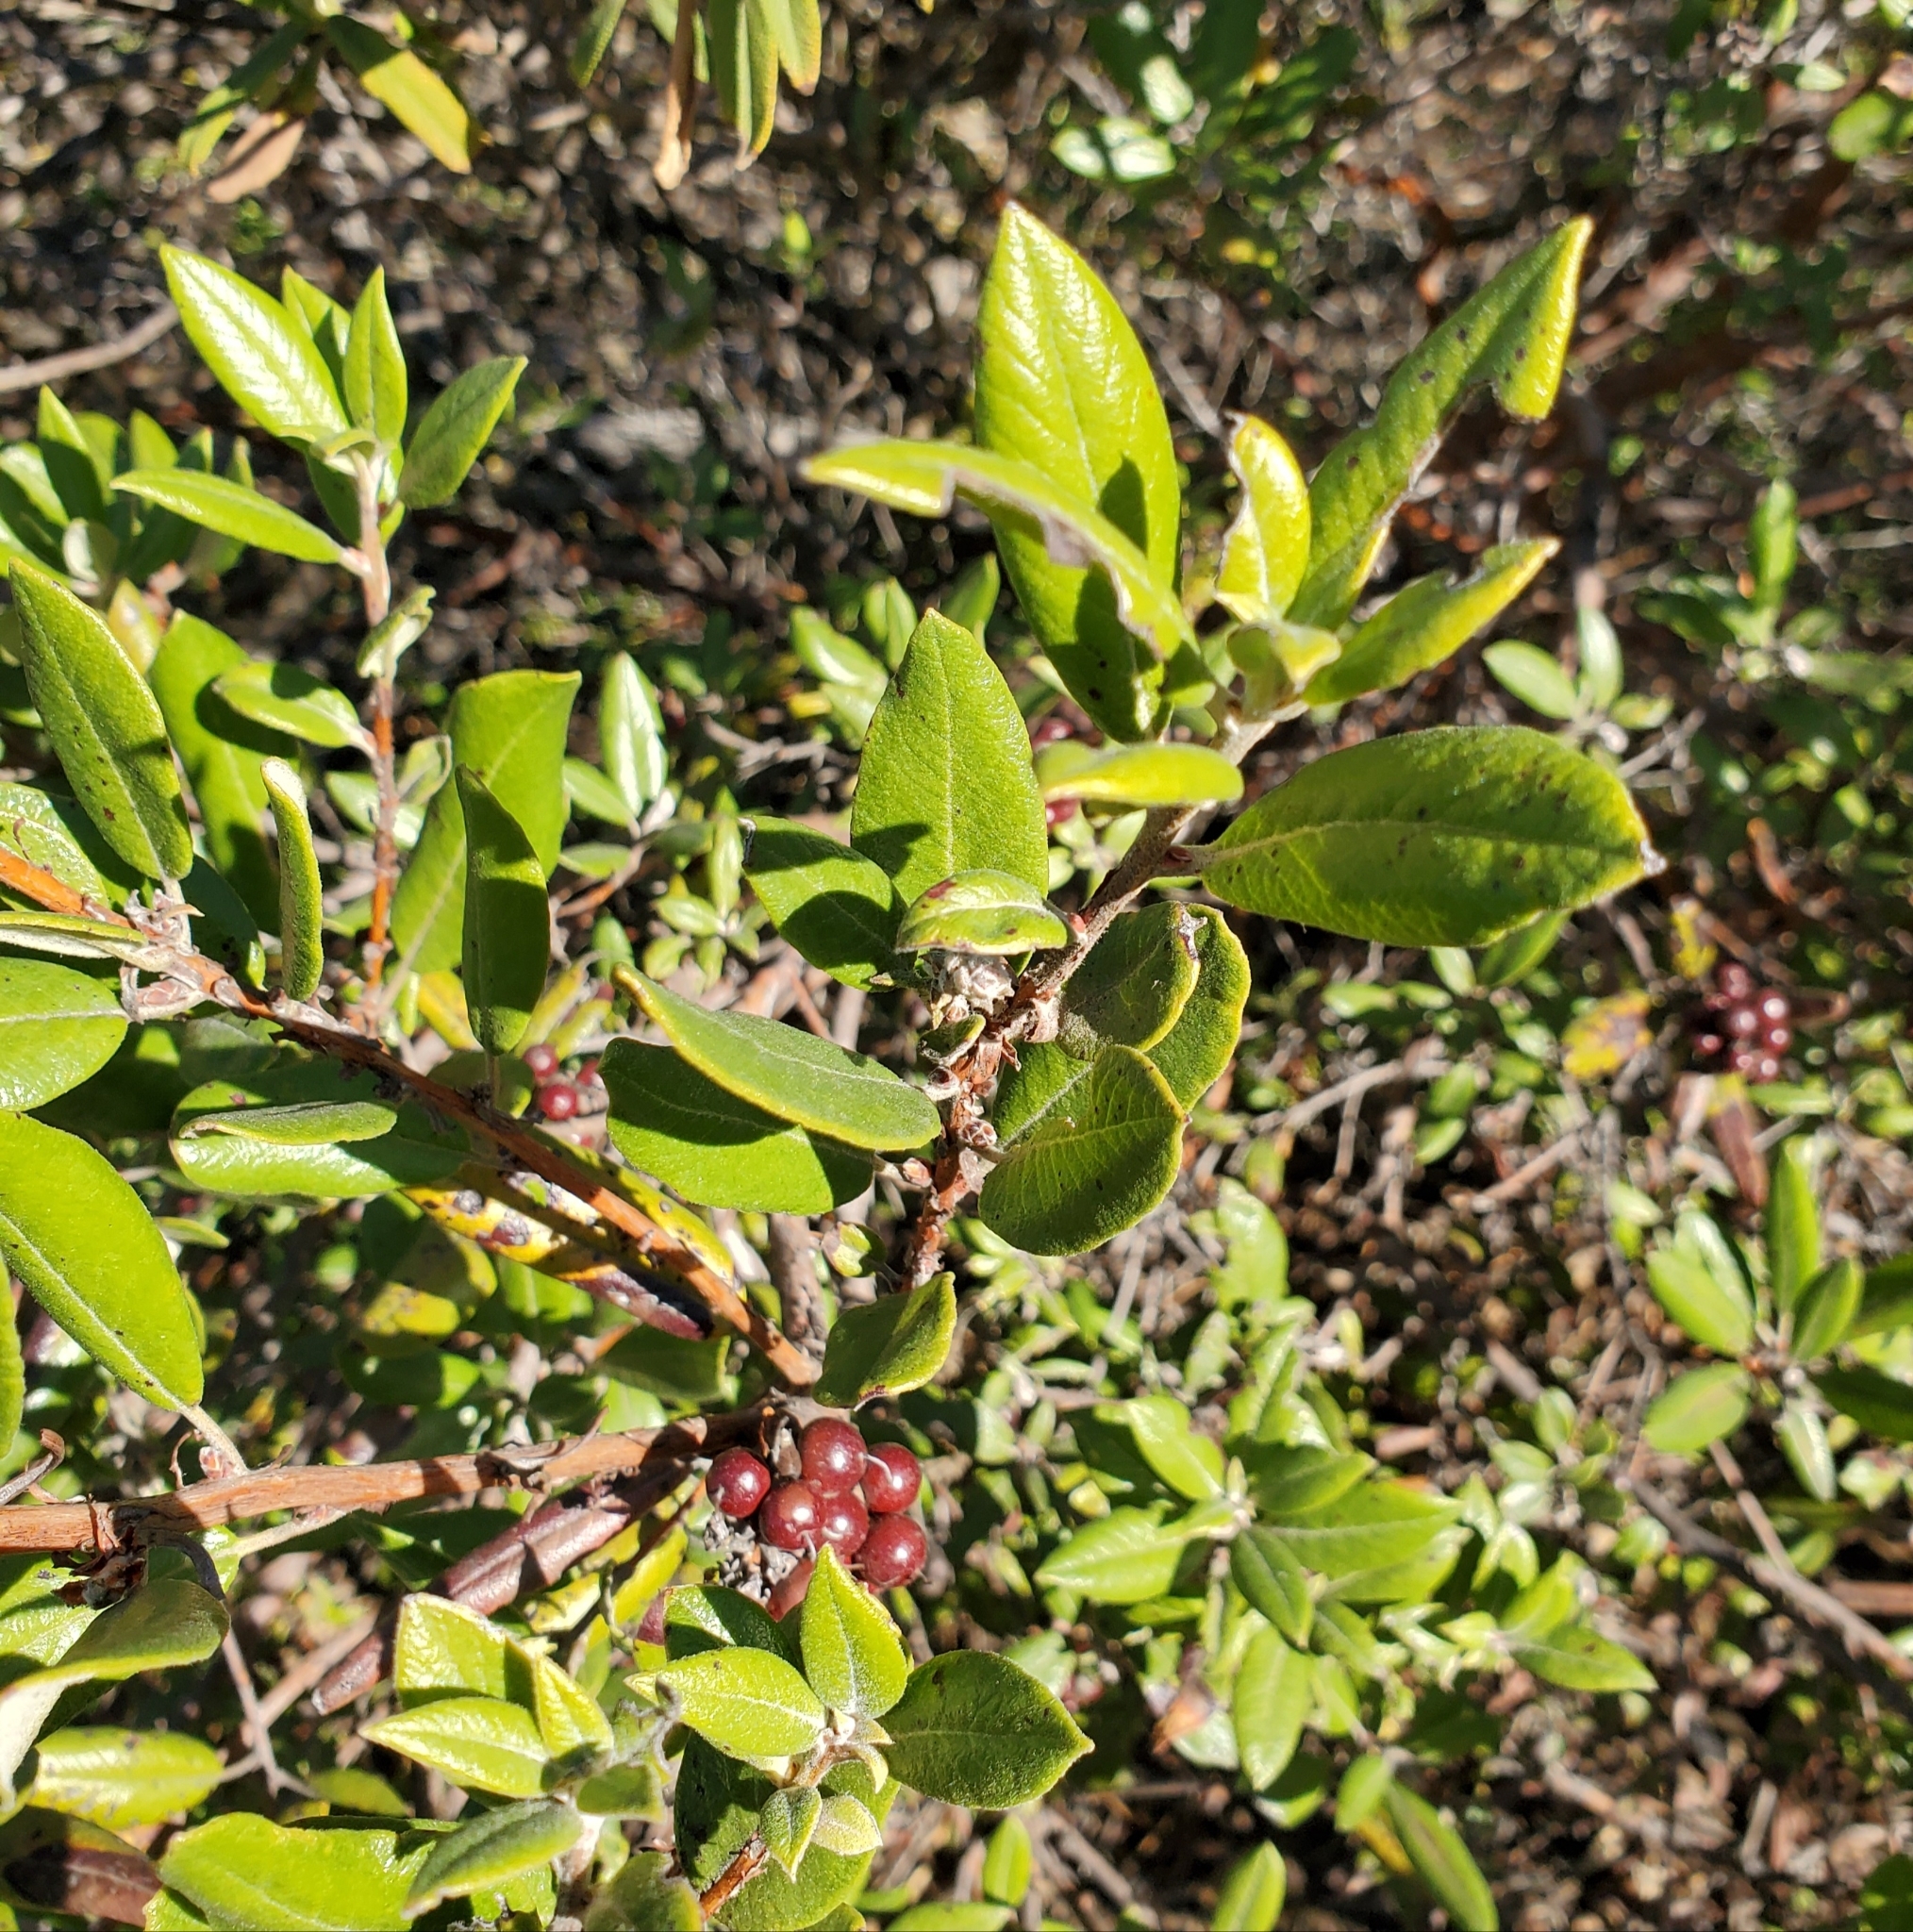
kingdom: Plantae
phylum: Tracheophyta
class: Magnoliopsida
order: Ericales
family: Ericaceae
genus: Arctostaphylos
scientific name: Arctostaphylos bicolor
